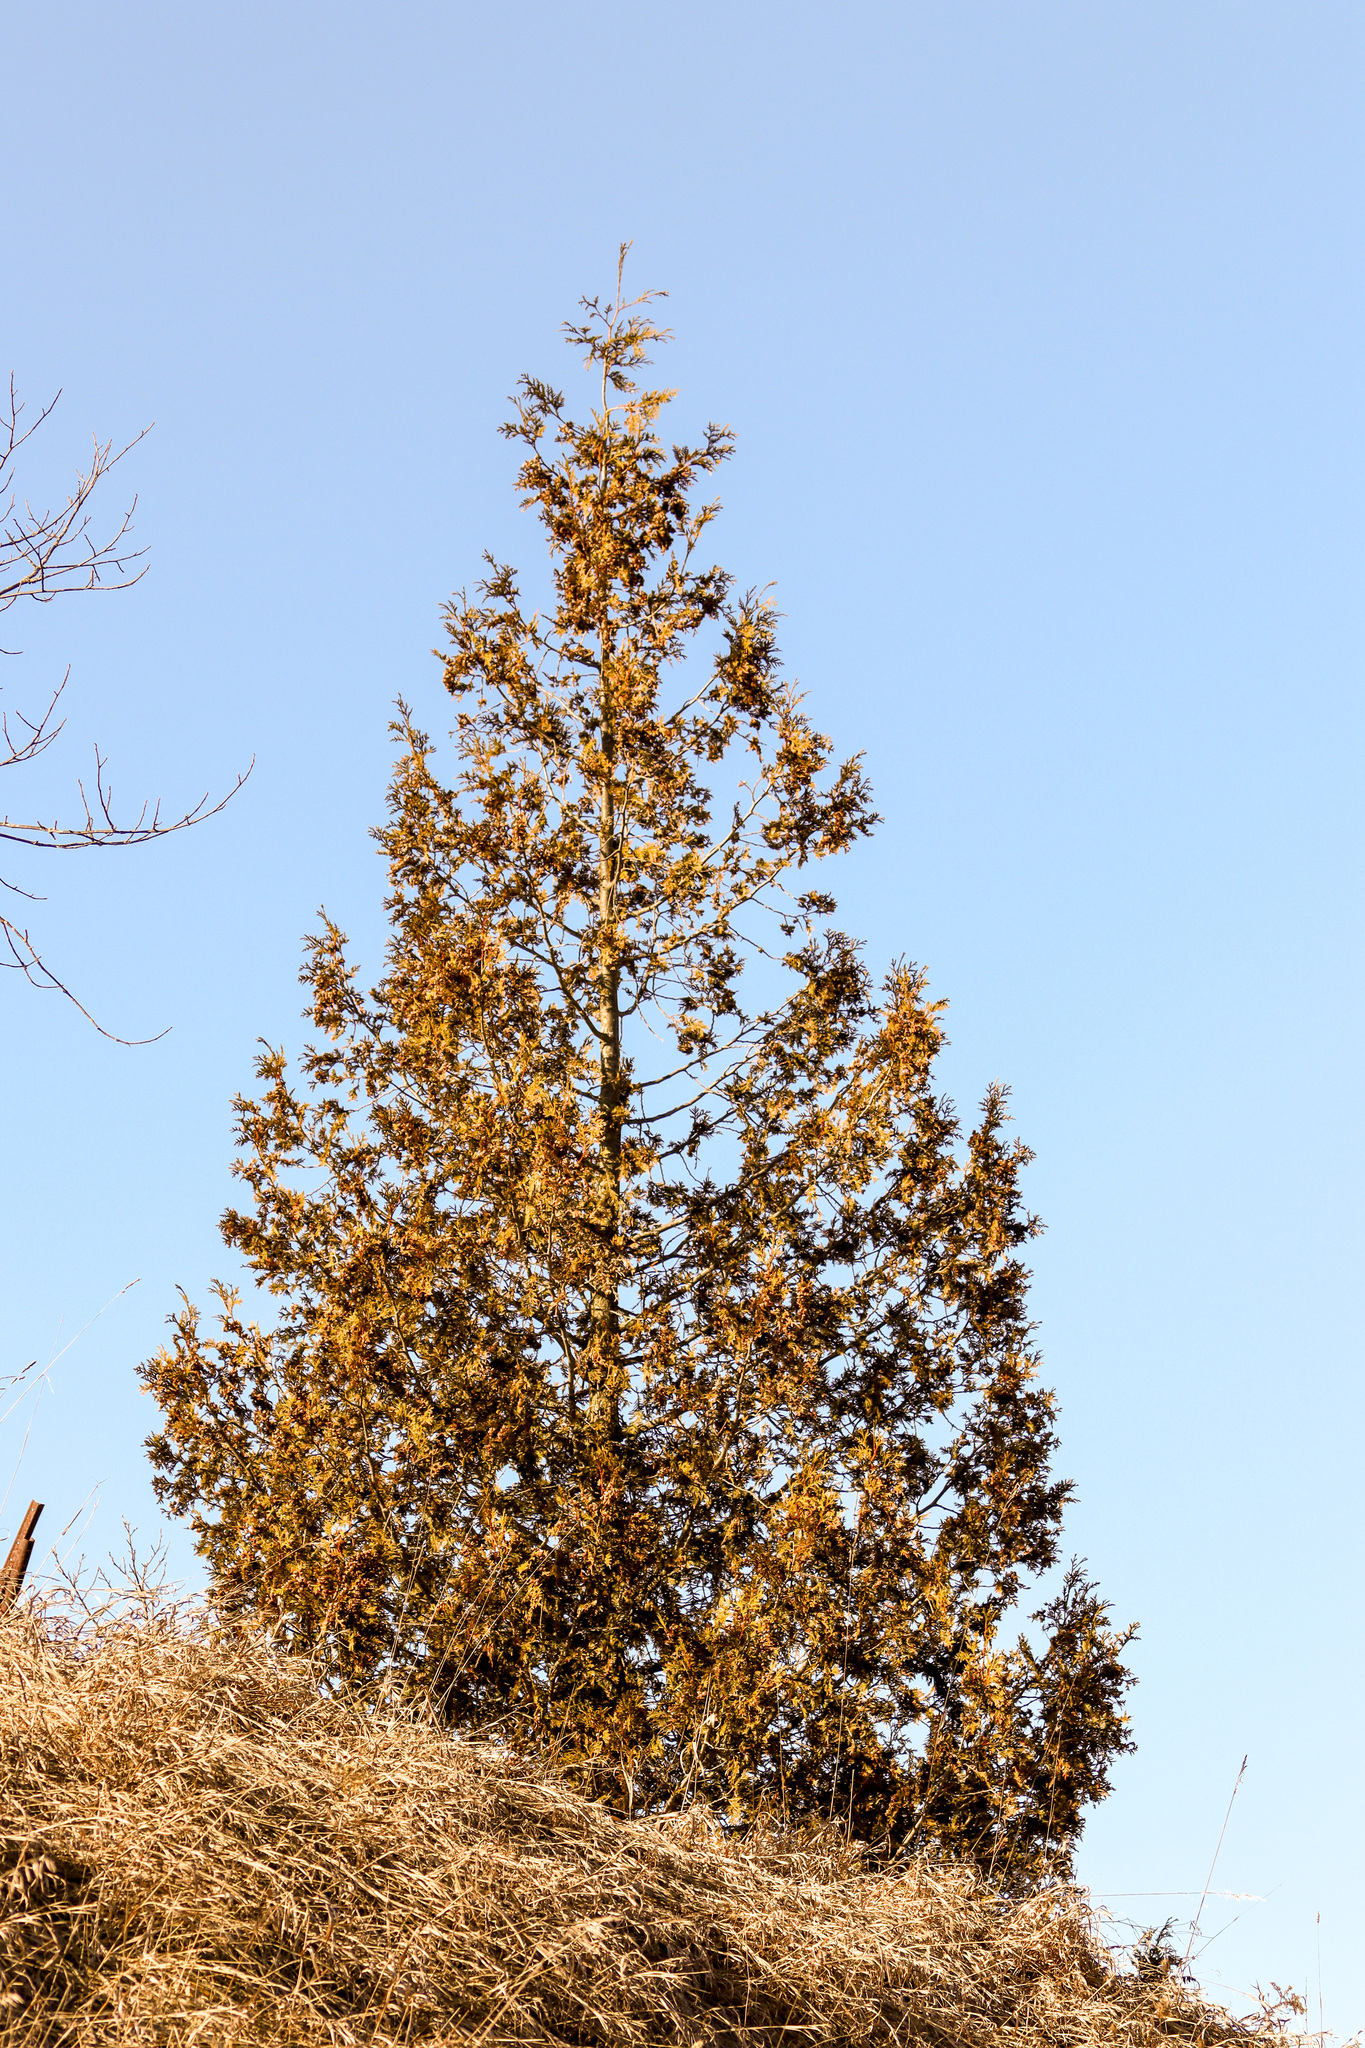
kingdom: Plantae
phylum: Tracheophyta
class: Pinopsida
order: Pinales
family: Cupressaceae
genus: Thuja
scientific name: Thuja occidentalis
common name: Northern white-cedar
